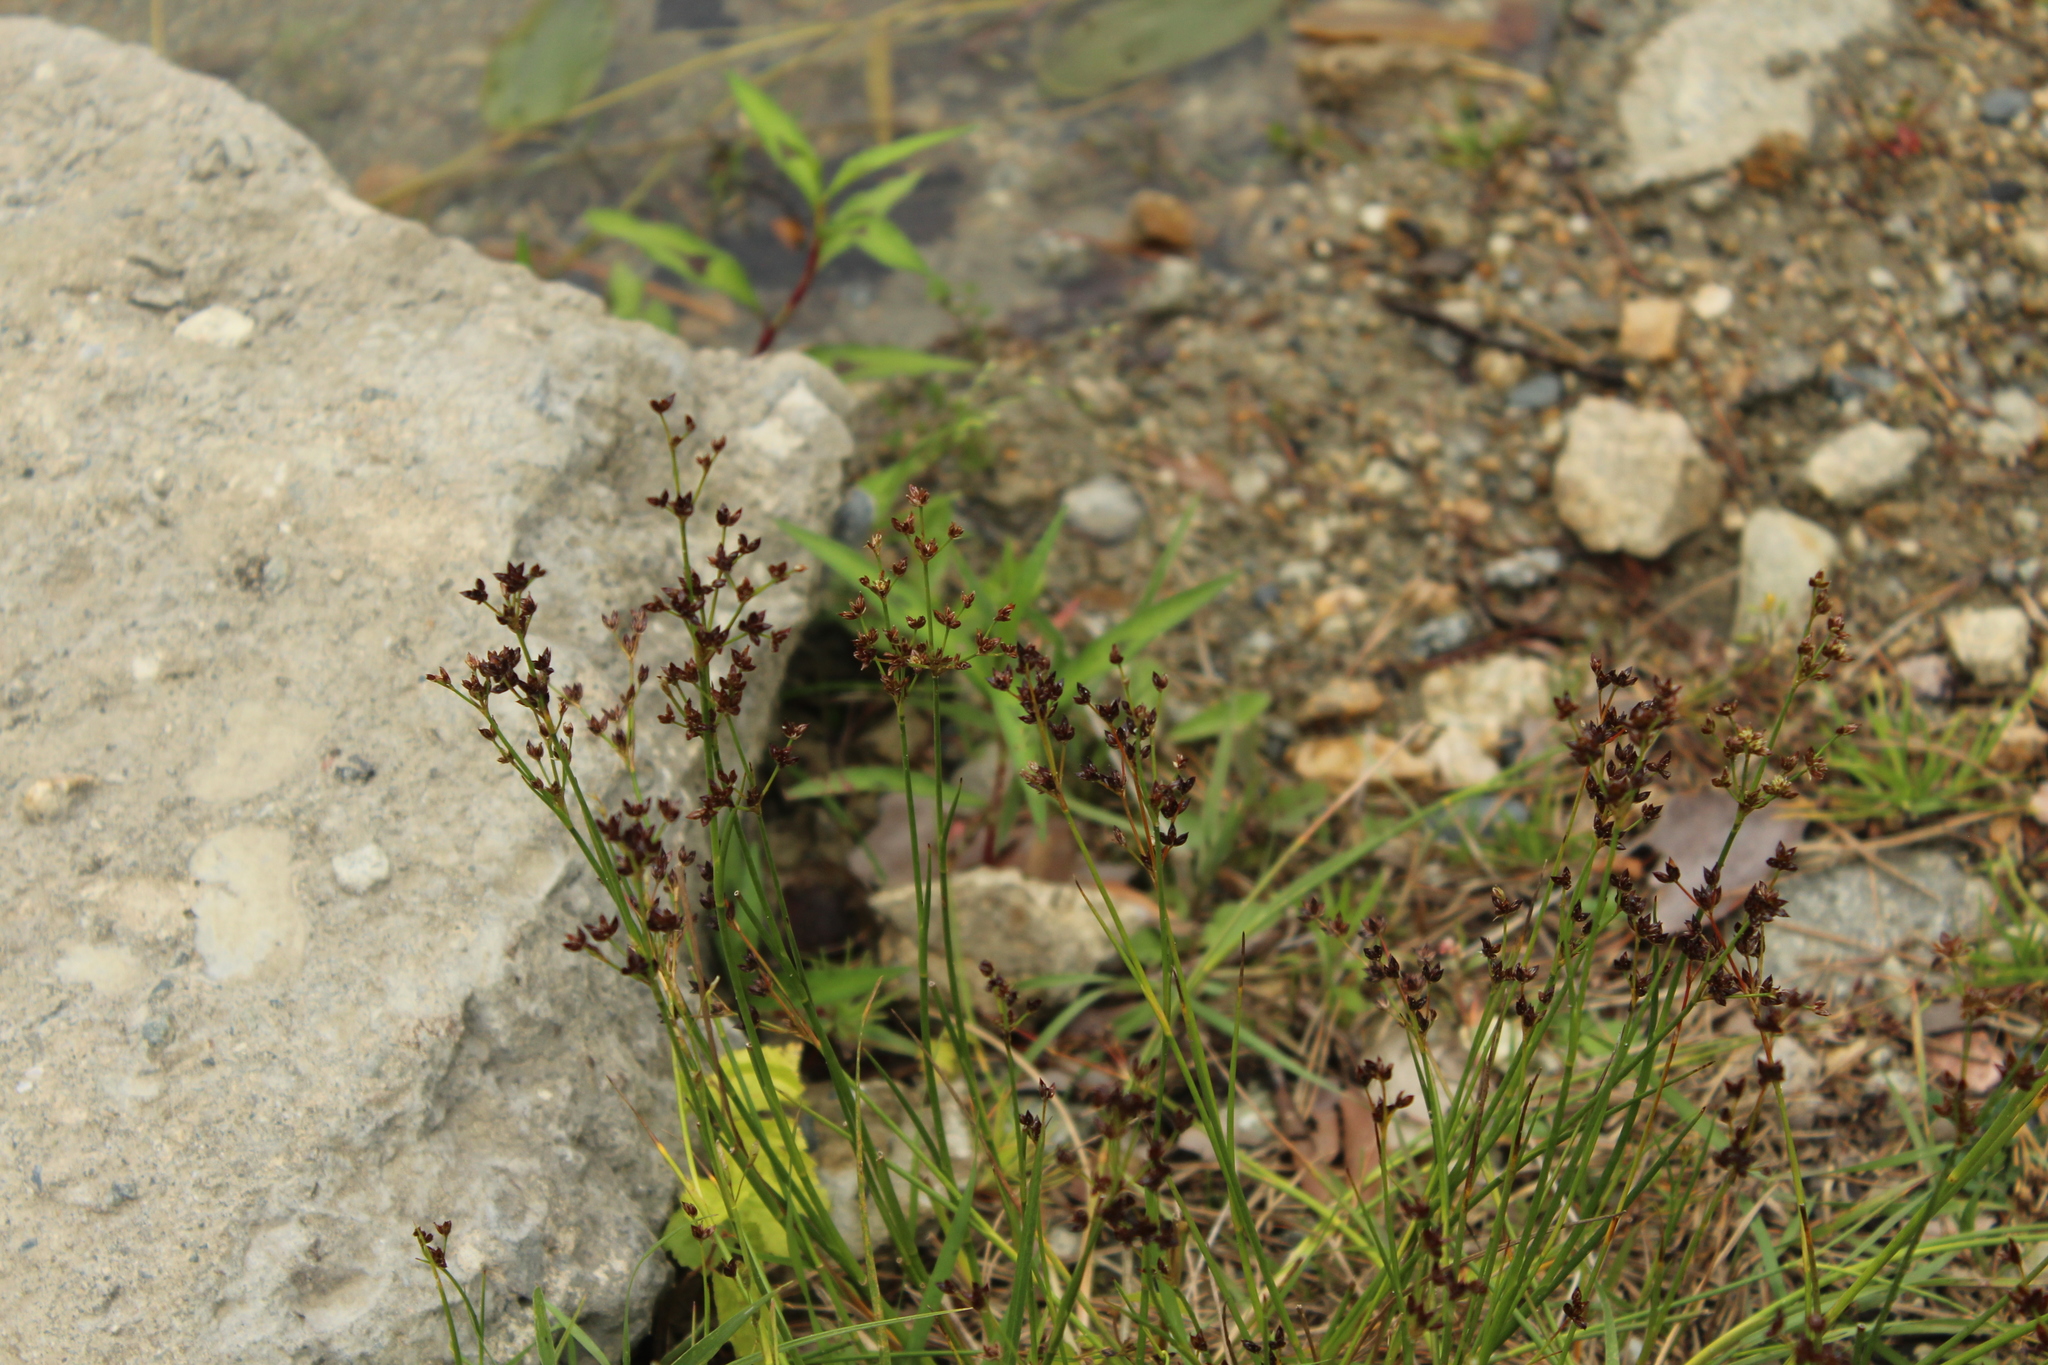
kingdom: Plantae
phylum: Tracheophyta
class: Liliopsida
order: Poales
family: Juncaceae
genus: Juncus
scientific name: Juncus articulatus
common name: Jointed rush
